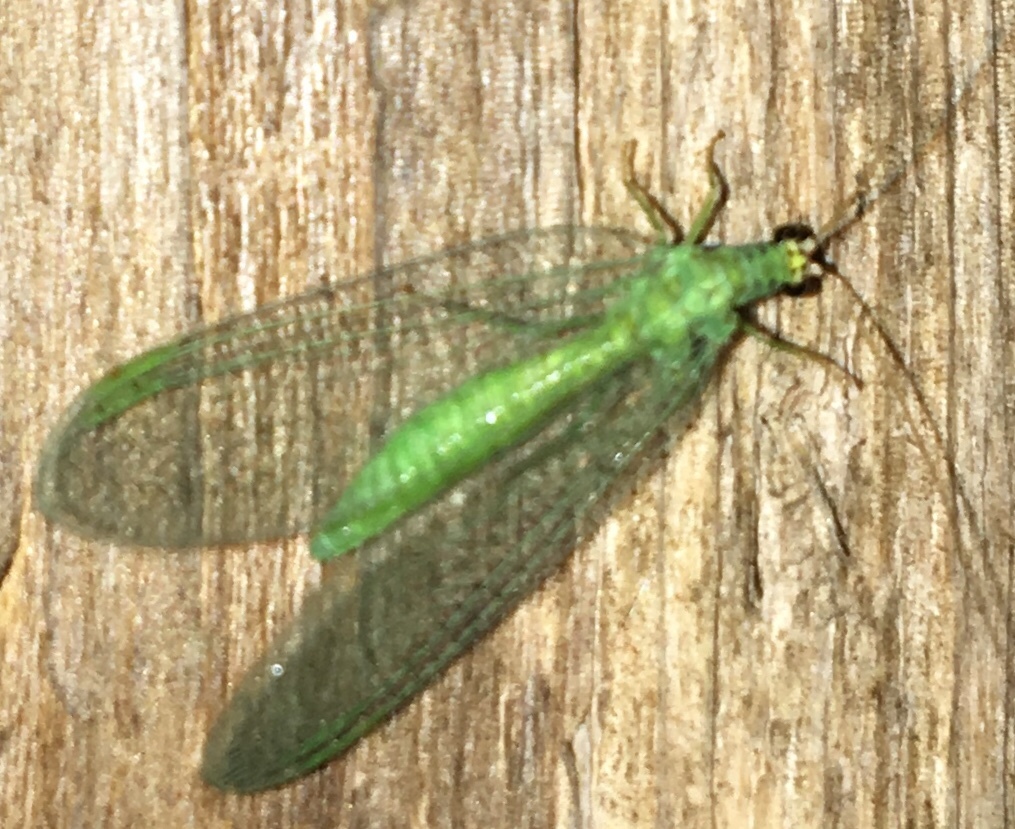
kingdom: Animalia
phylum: Arthropoda
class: Insecta
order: Neuroptera
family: Chrysopidae
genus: Chrysopa
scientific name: Chrysopa oculata
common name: Golden-eyed lacewing
